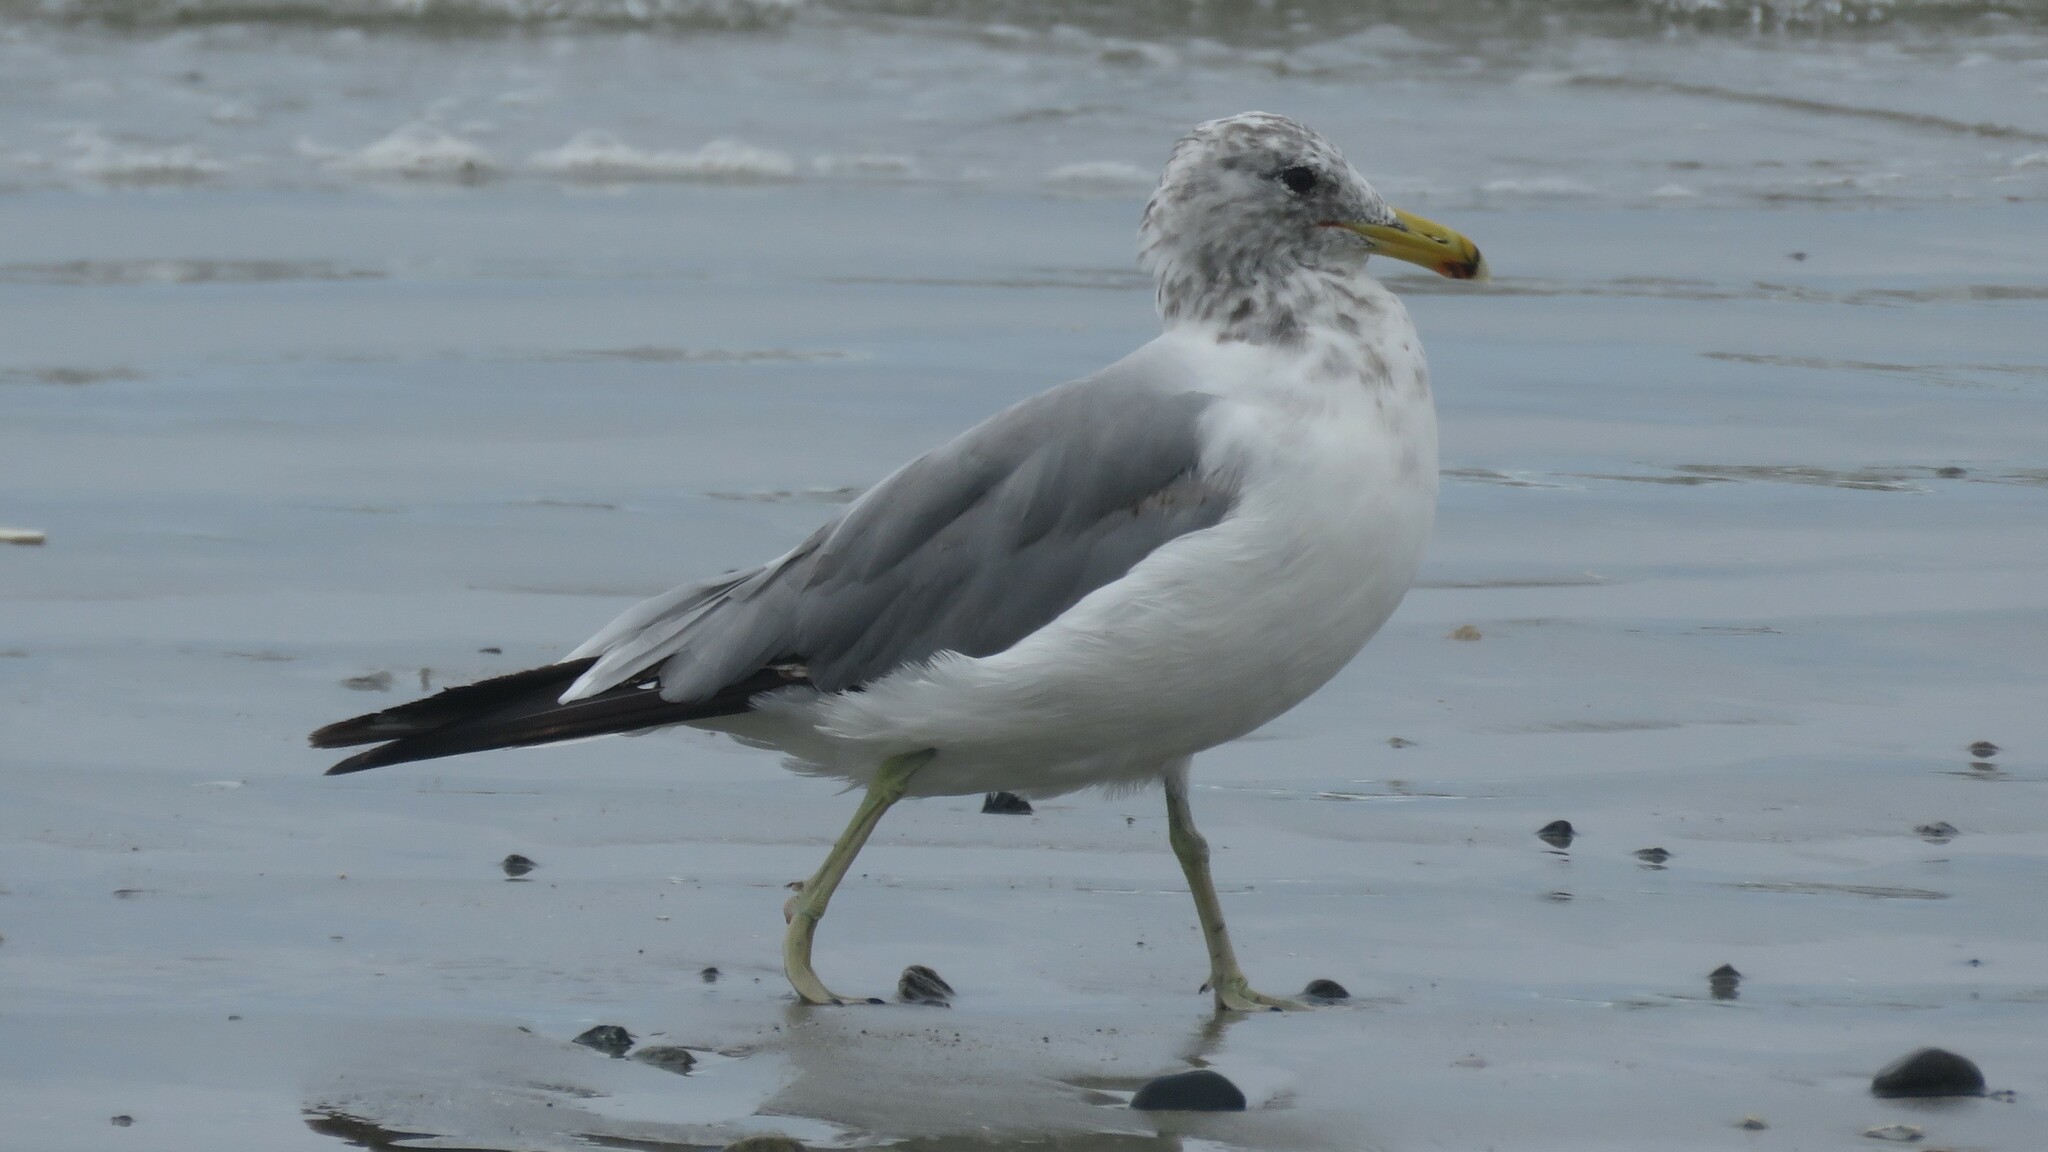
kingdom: Animalia
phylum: Chordata
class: Aves
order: Charadriiformes
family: Laridae
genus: Larus
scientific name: Larus californicus
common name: California gull
